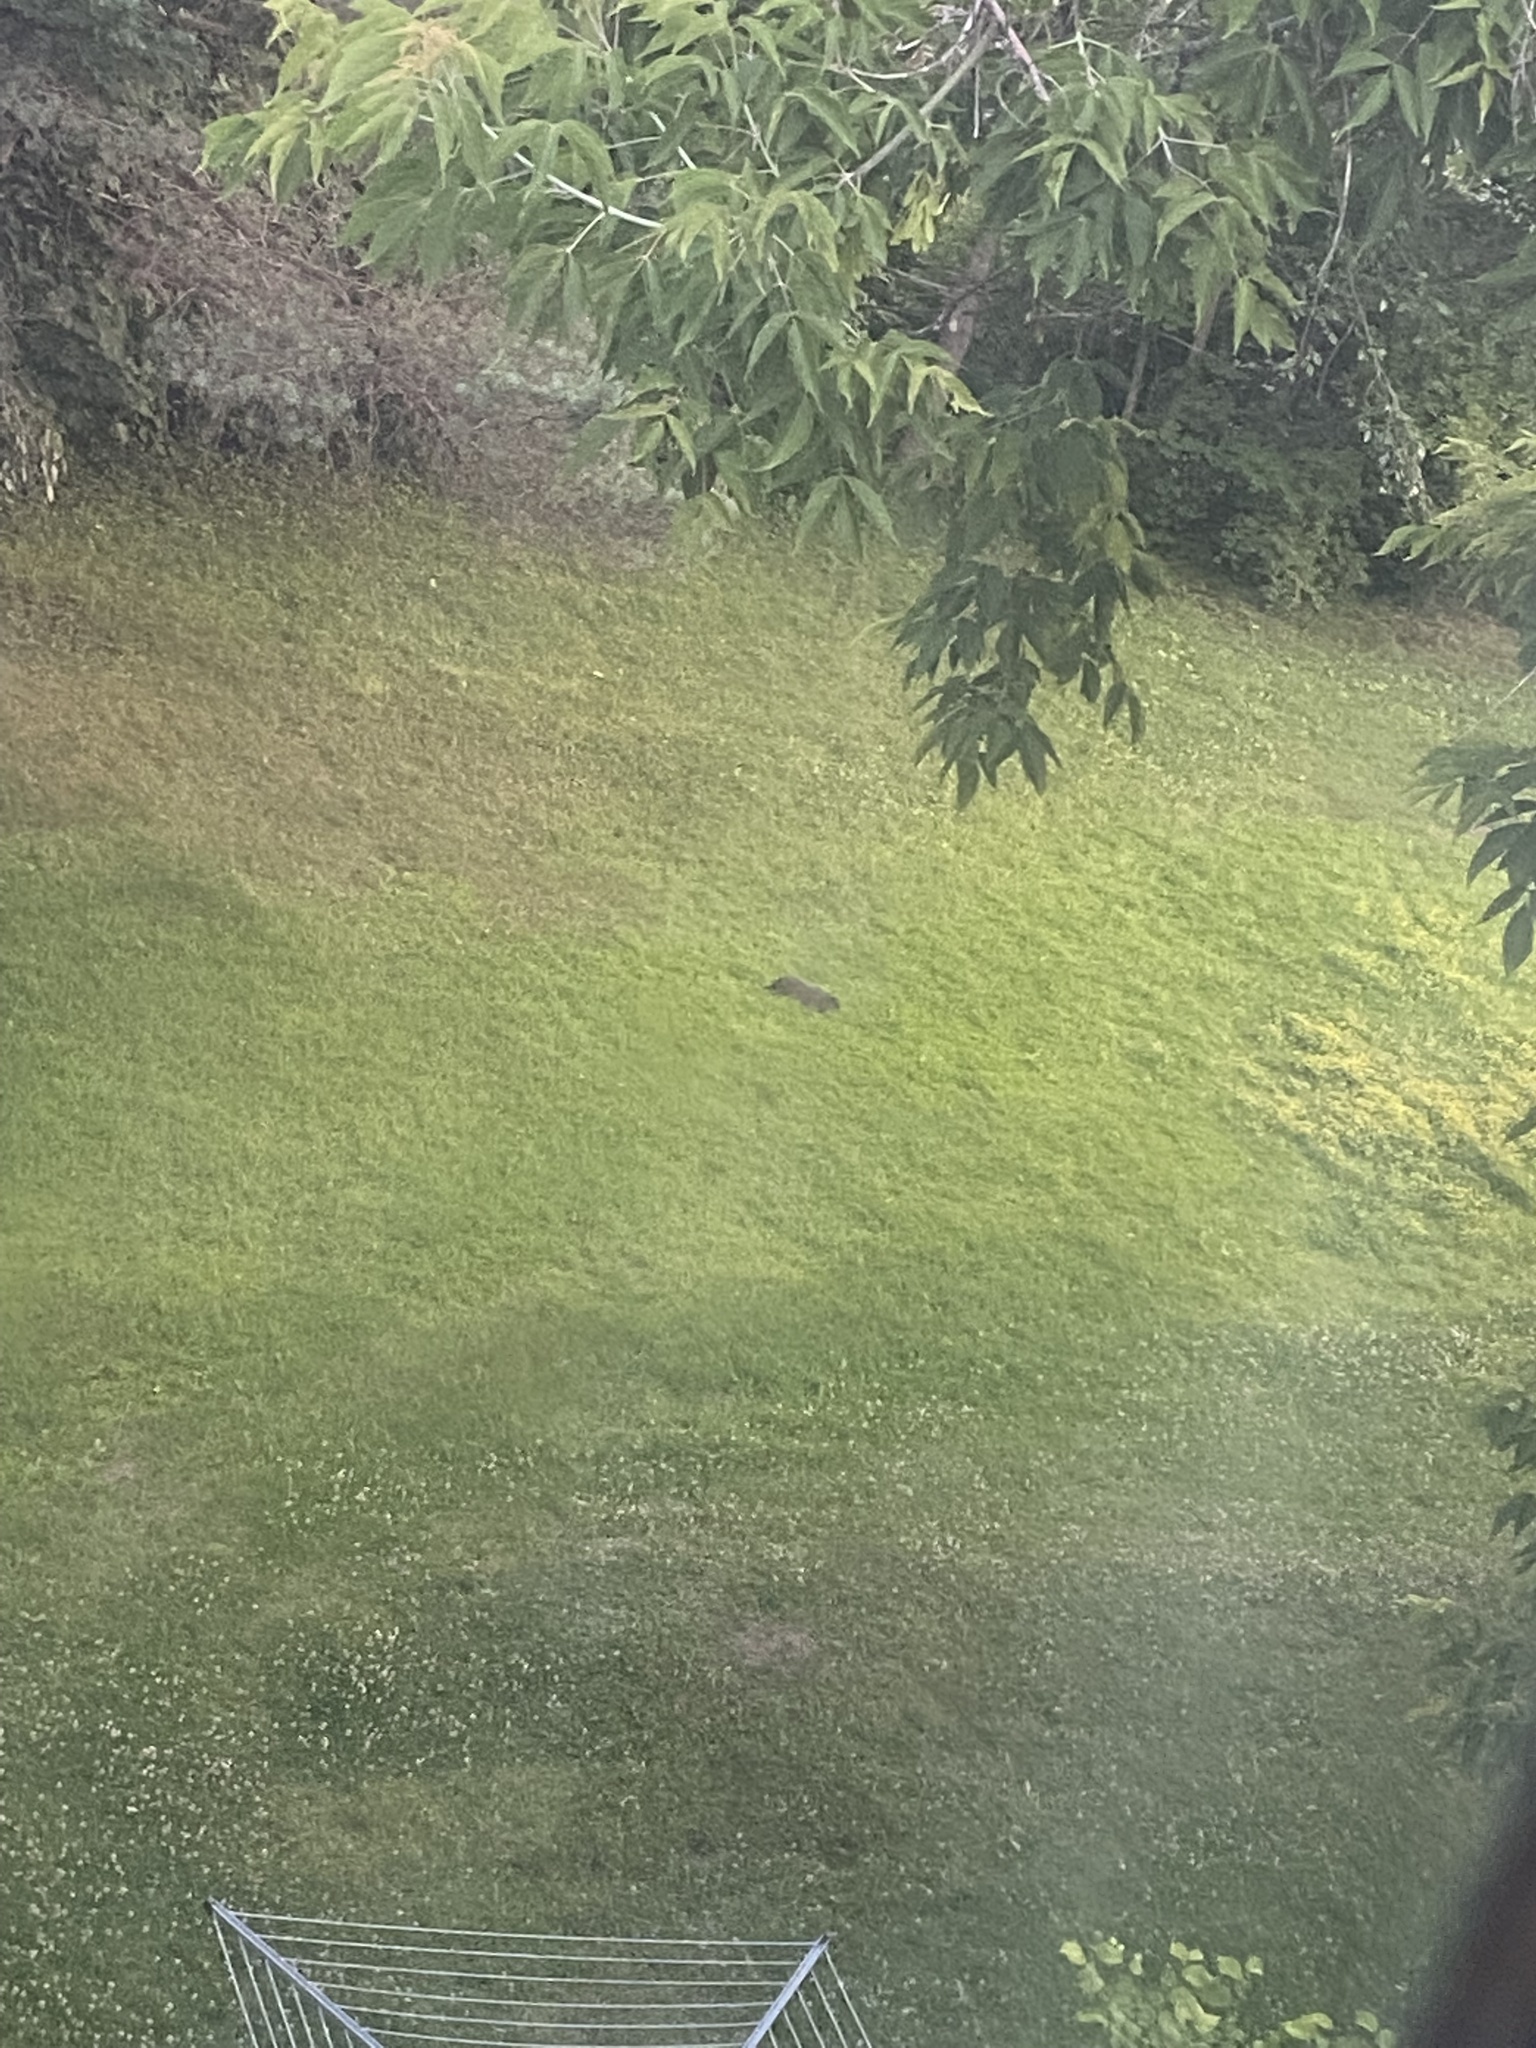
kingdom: Animalia
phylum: Chordata
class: Mammalia
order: Rodentia
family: Sciuridae
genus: Marmota
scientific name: Marmota monax
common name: Groundhog
